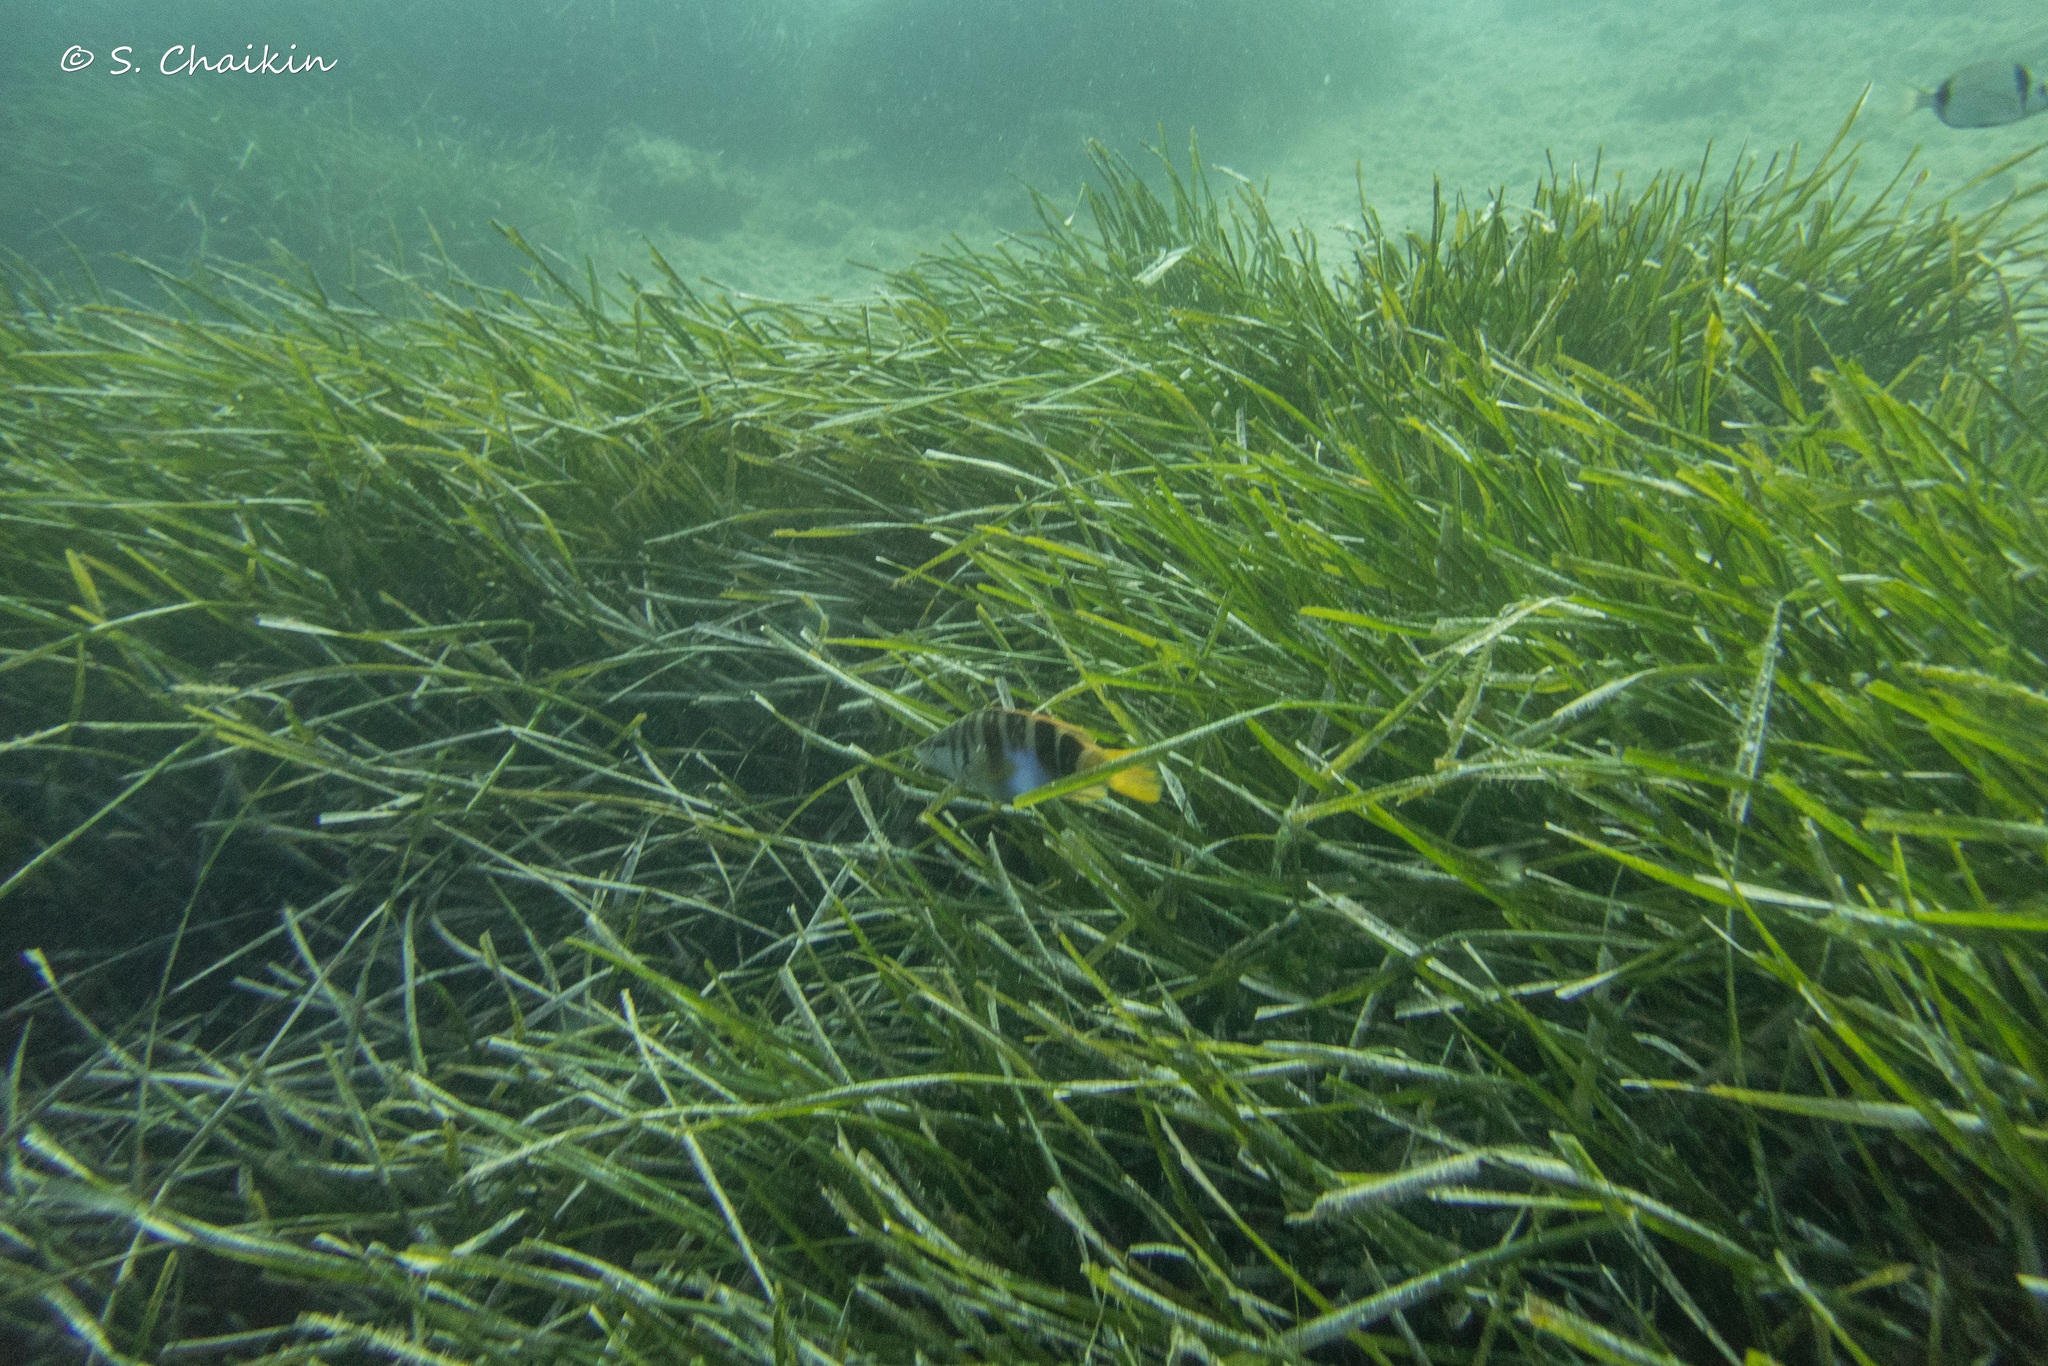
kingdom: Plantae
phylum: Tracheophyta
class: Liliopsida
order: Alismatales
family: Posidoniaceae
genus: Posidonia
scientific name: Posidonia oceanica
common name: Mediterranean tapeweed
